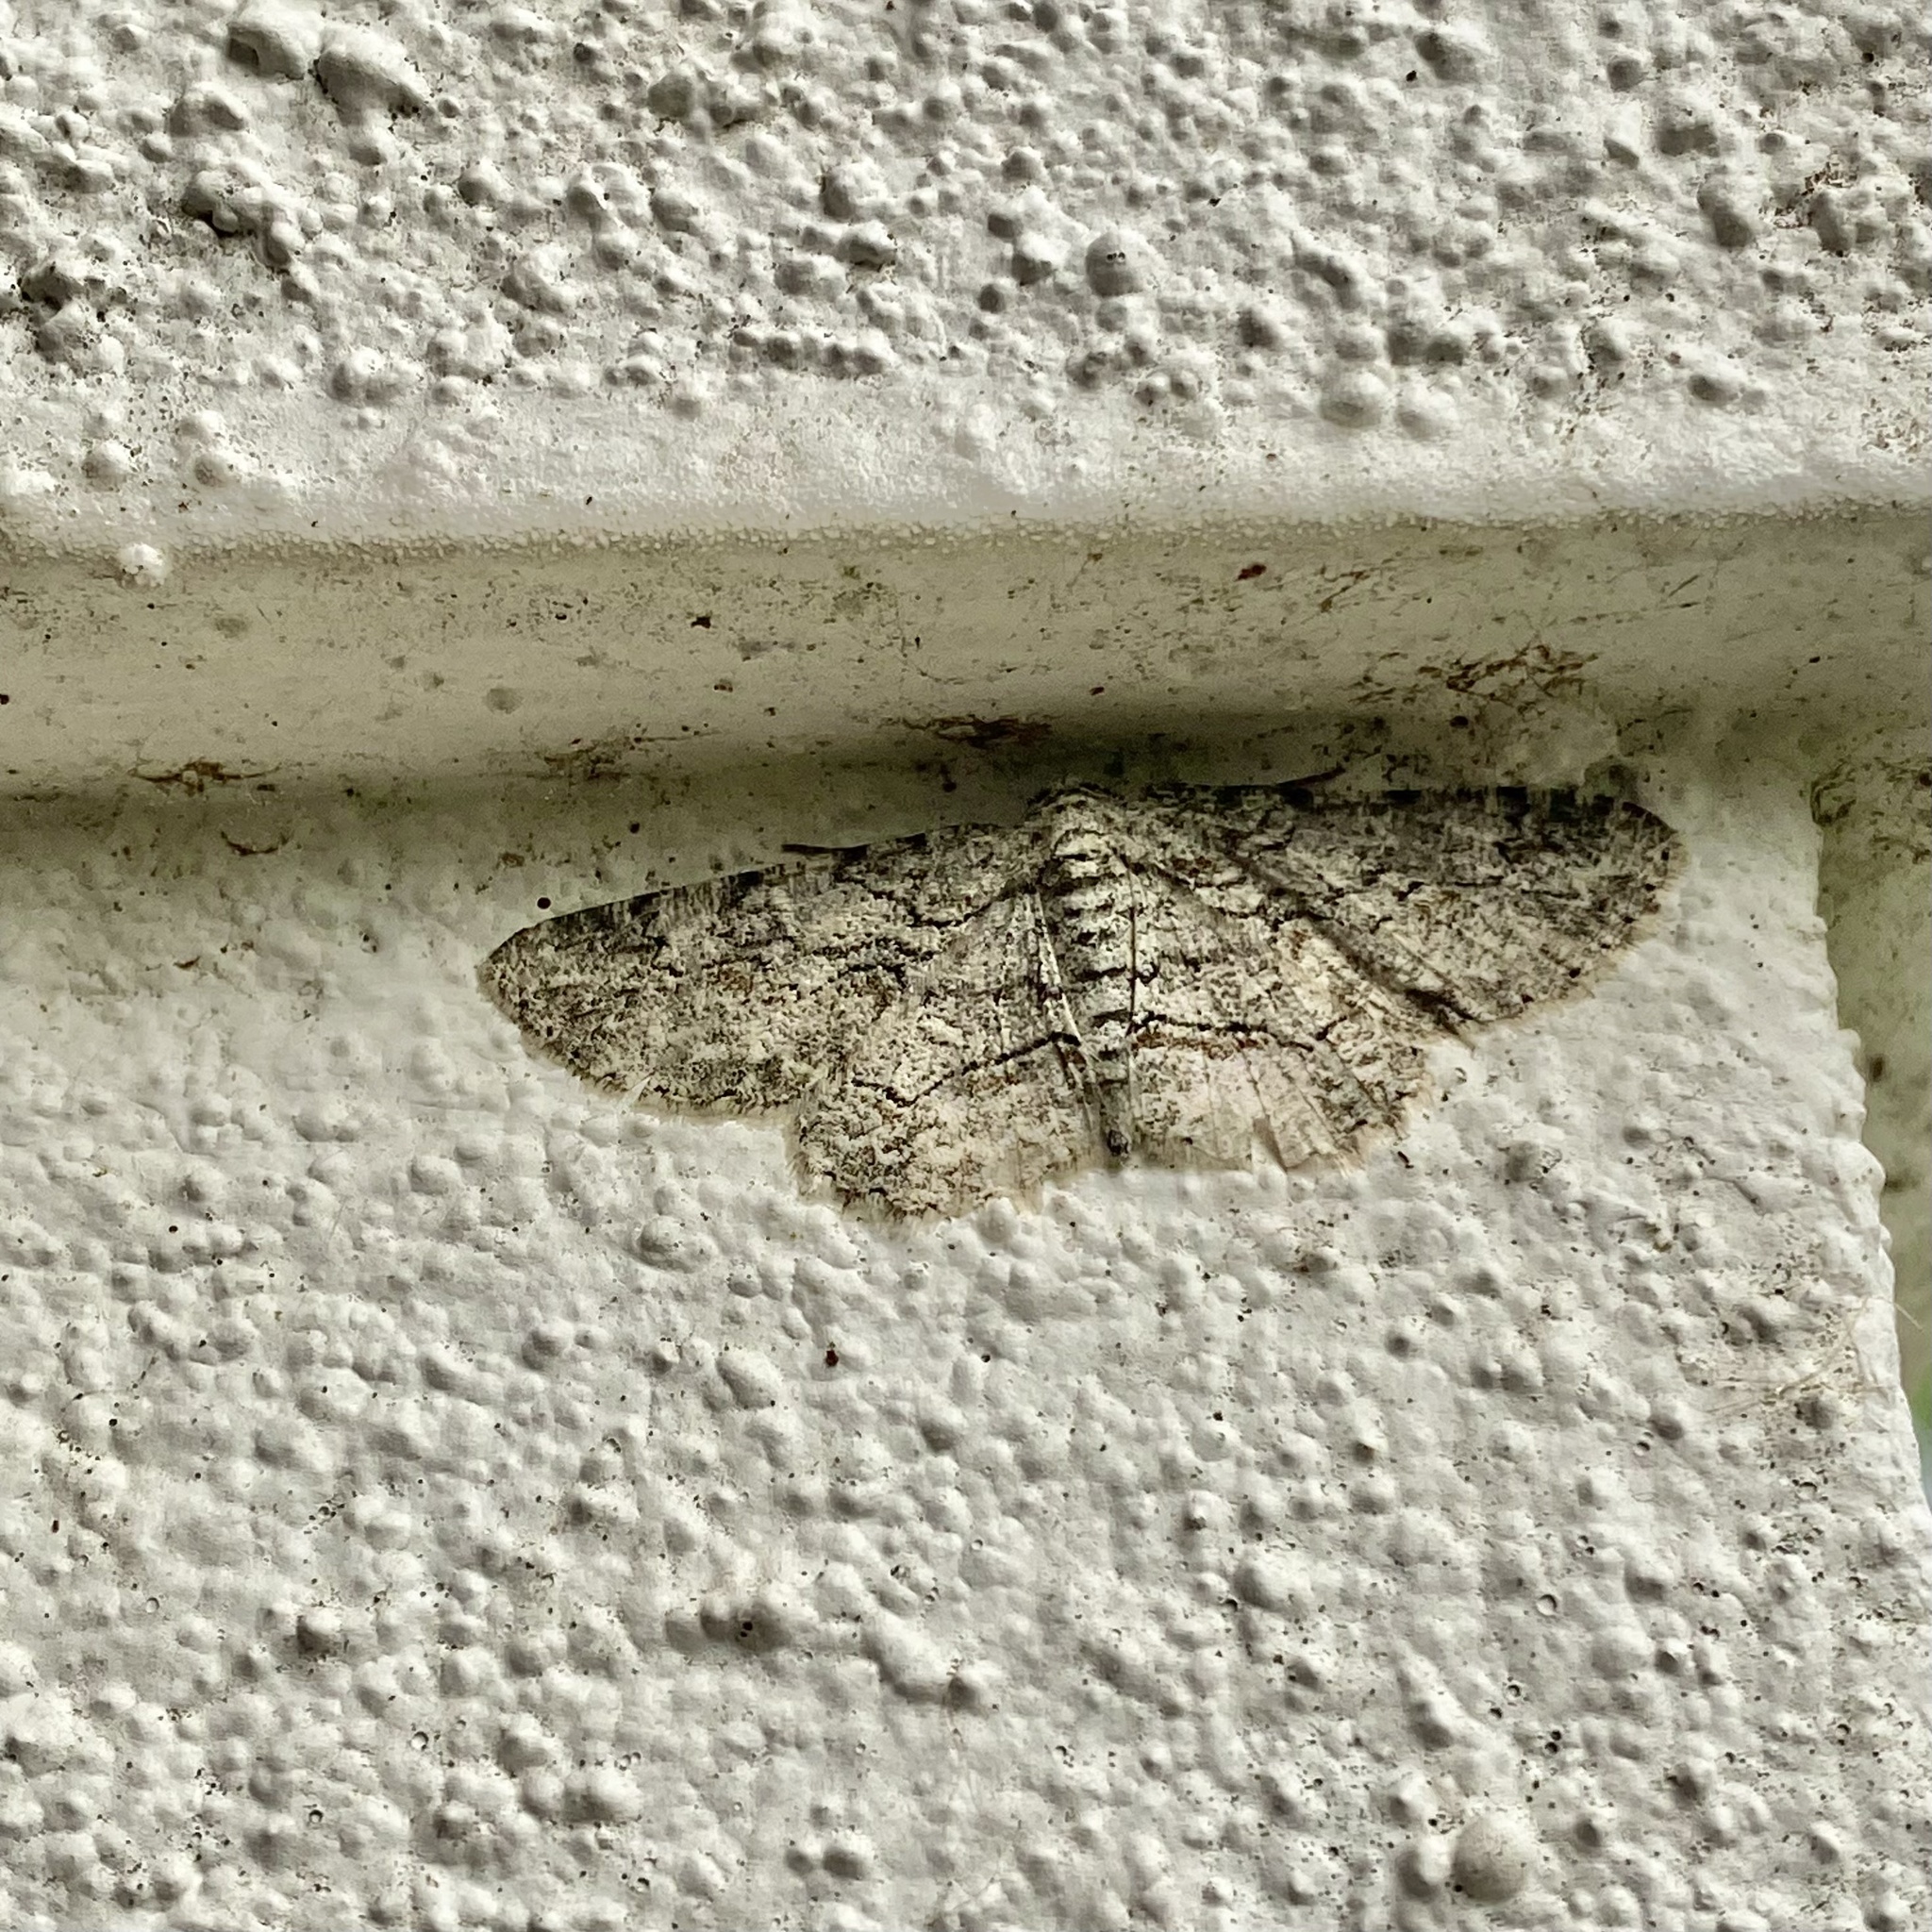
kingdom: Animalia
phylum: Arthropoda
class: Insecta
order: Lepidoptera
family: Geometridae
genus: Iridopsis
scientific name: Iridopsis defectaria
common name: Brown-shaded gray
